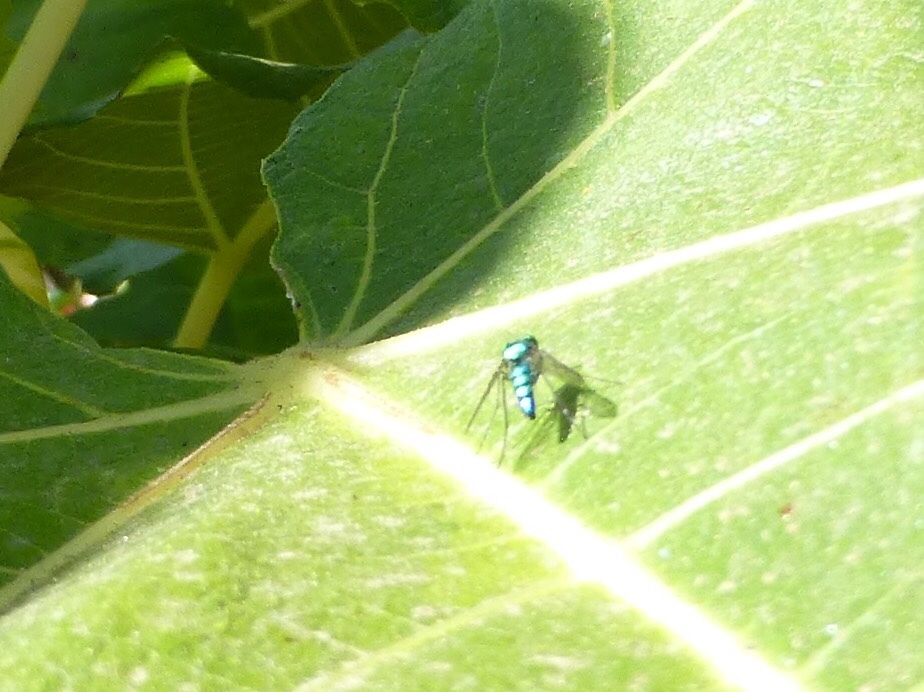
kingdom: Animalia
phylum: Arthropoda
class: Insecta
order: Diptera
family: Dolichopodidae
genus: Condylostylus
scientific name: Condylostylus longicornis
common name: Long-legged fly
